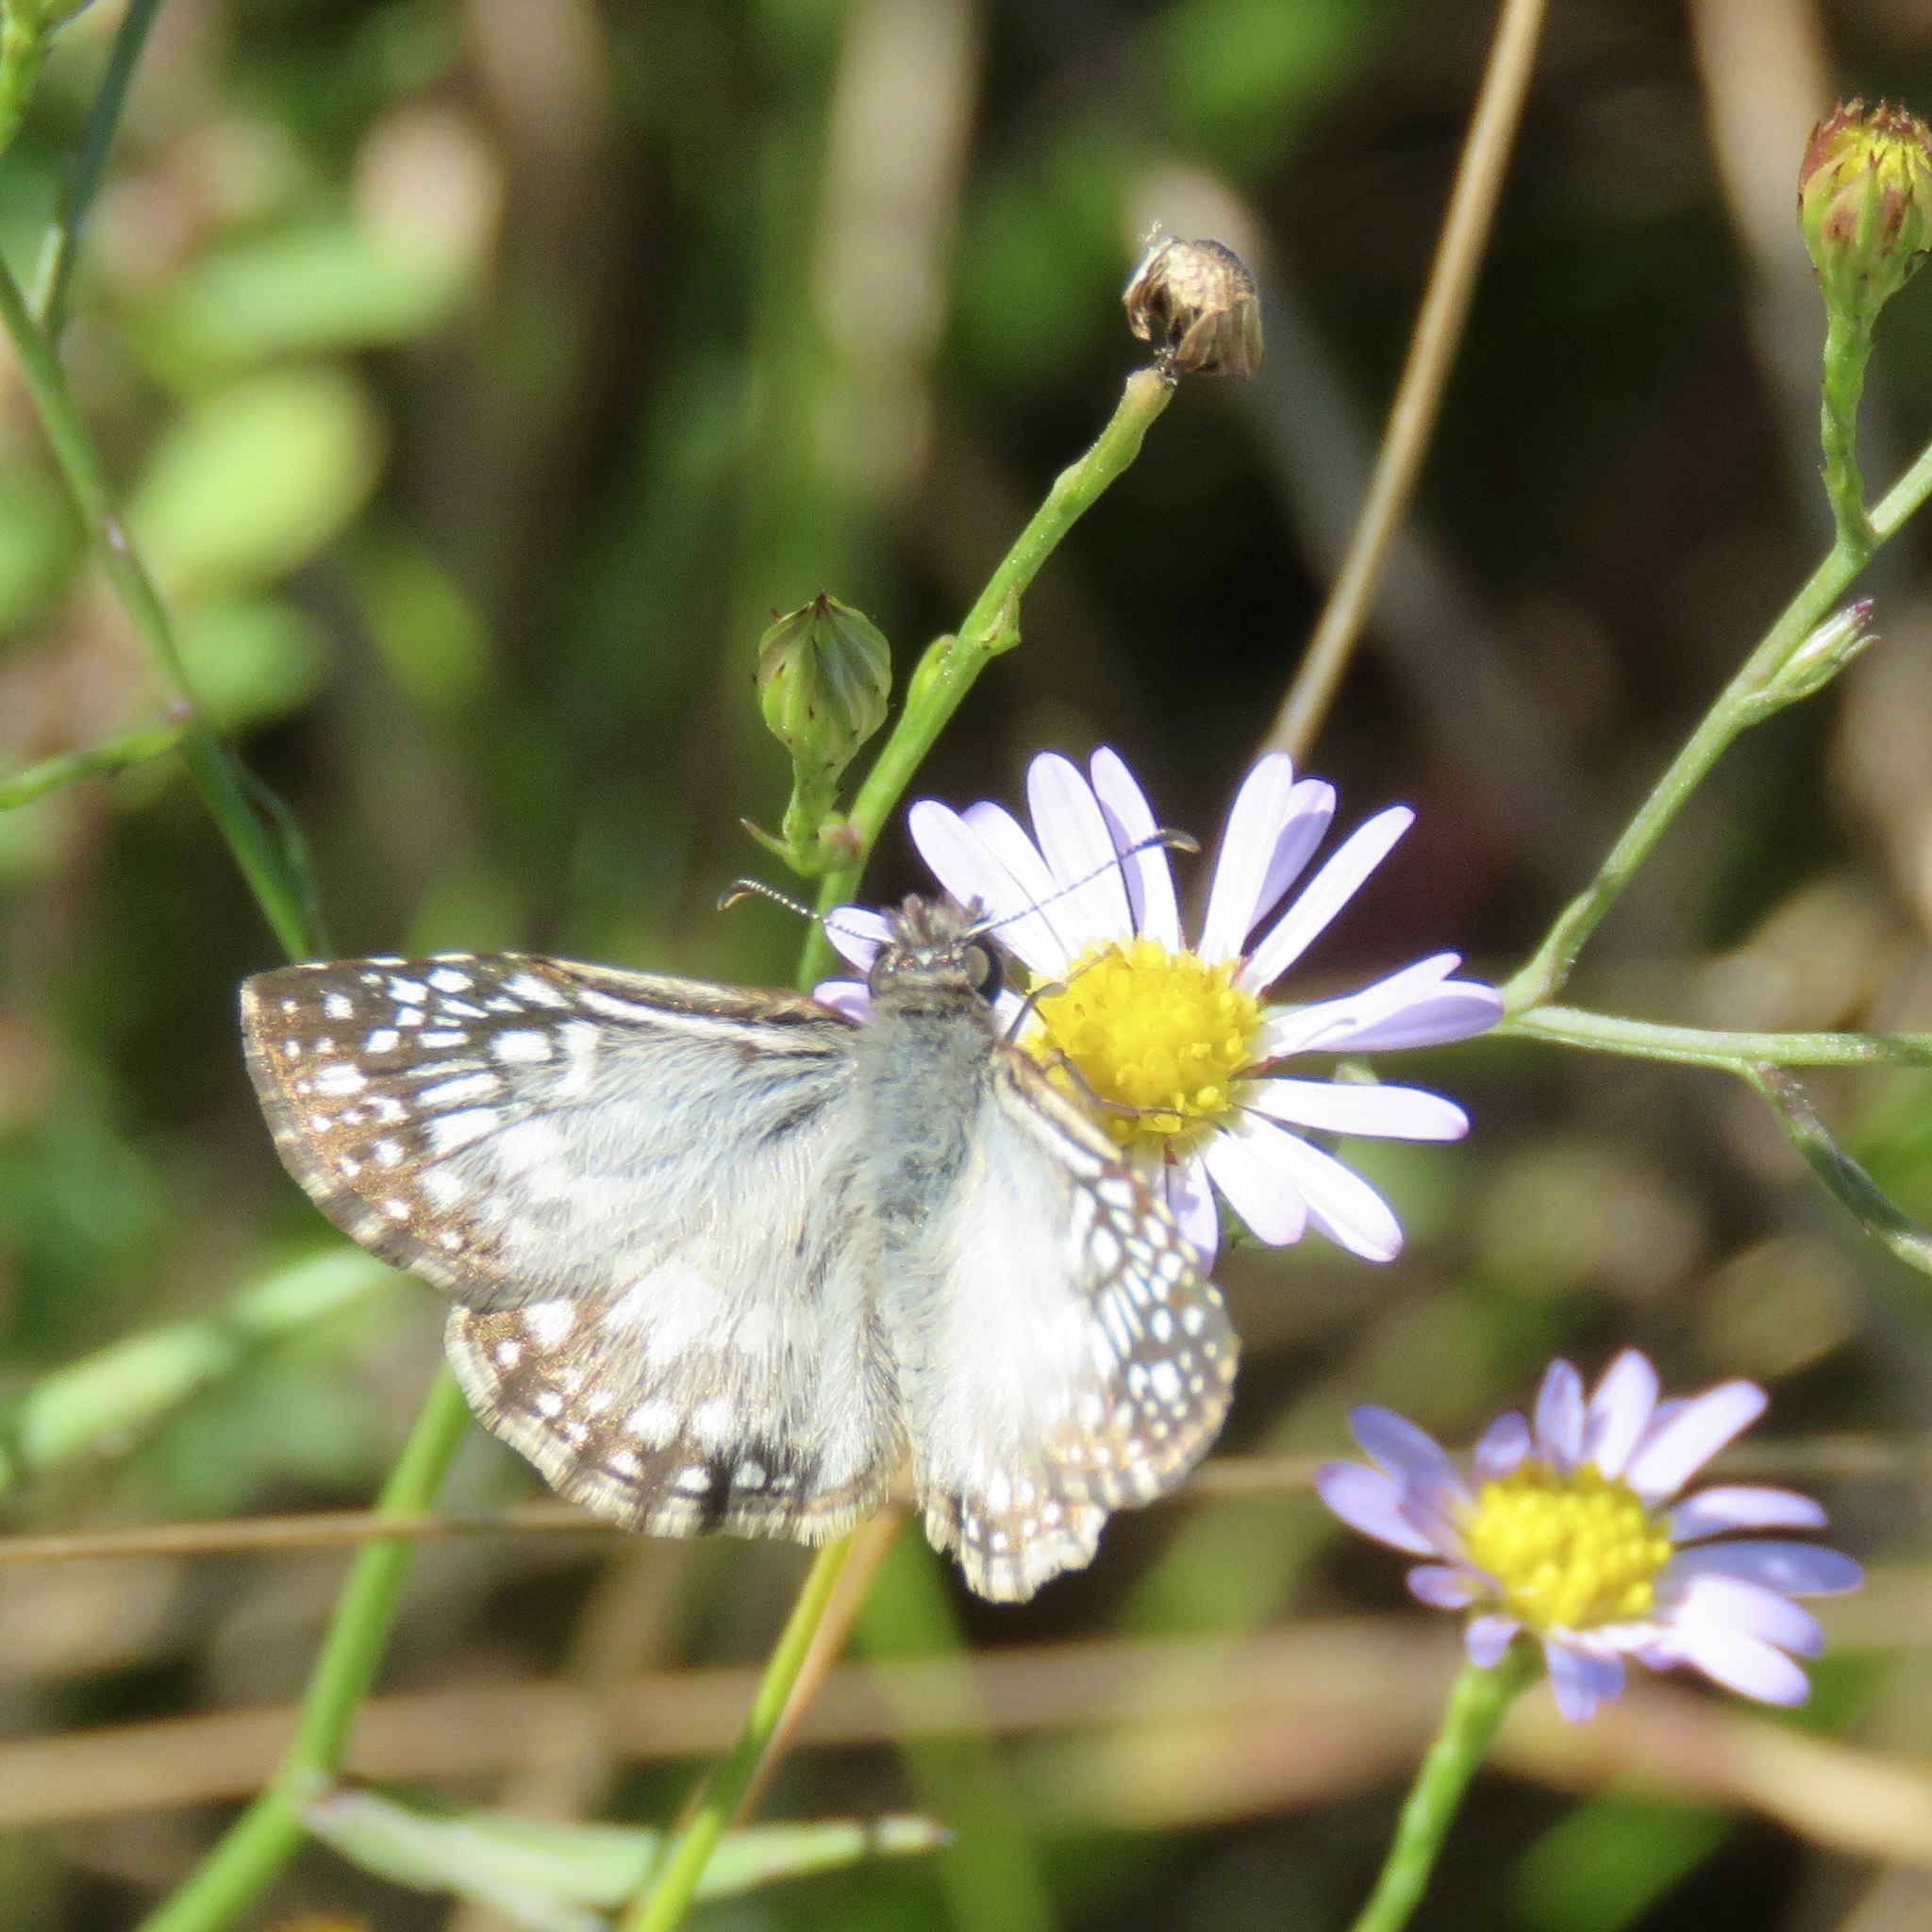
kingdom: Animalia
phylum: Arthropoda
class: Insecta
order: Lepidoptera
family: Hesperiidae
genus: Pyrgus
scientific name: Pyrgus oileus
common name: Tropical checkered-skipper
